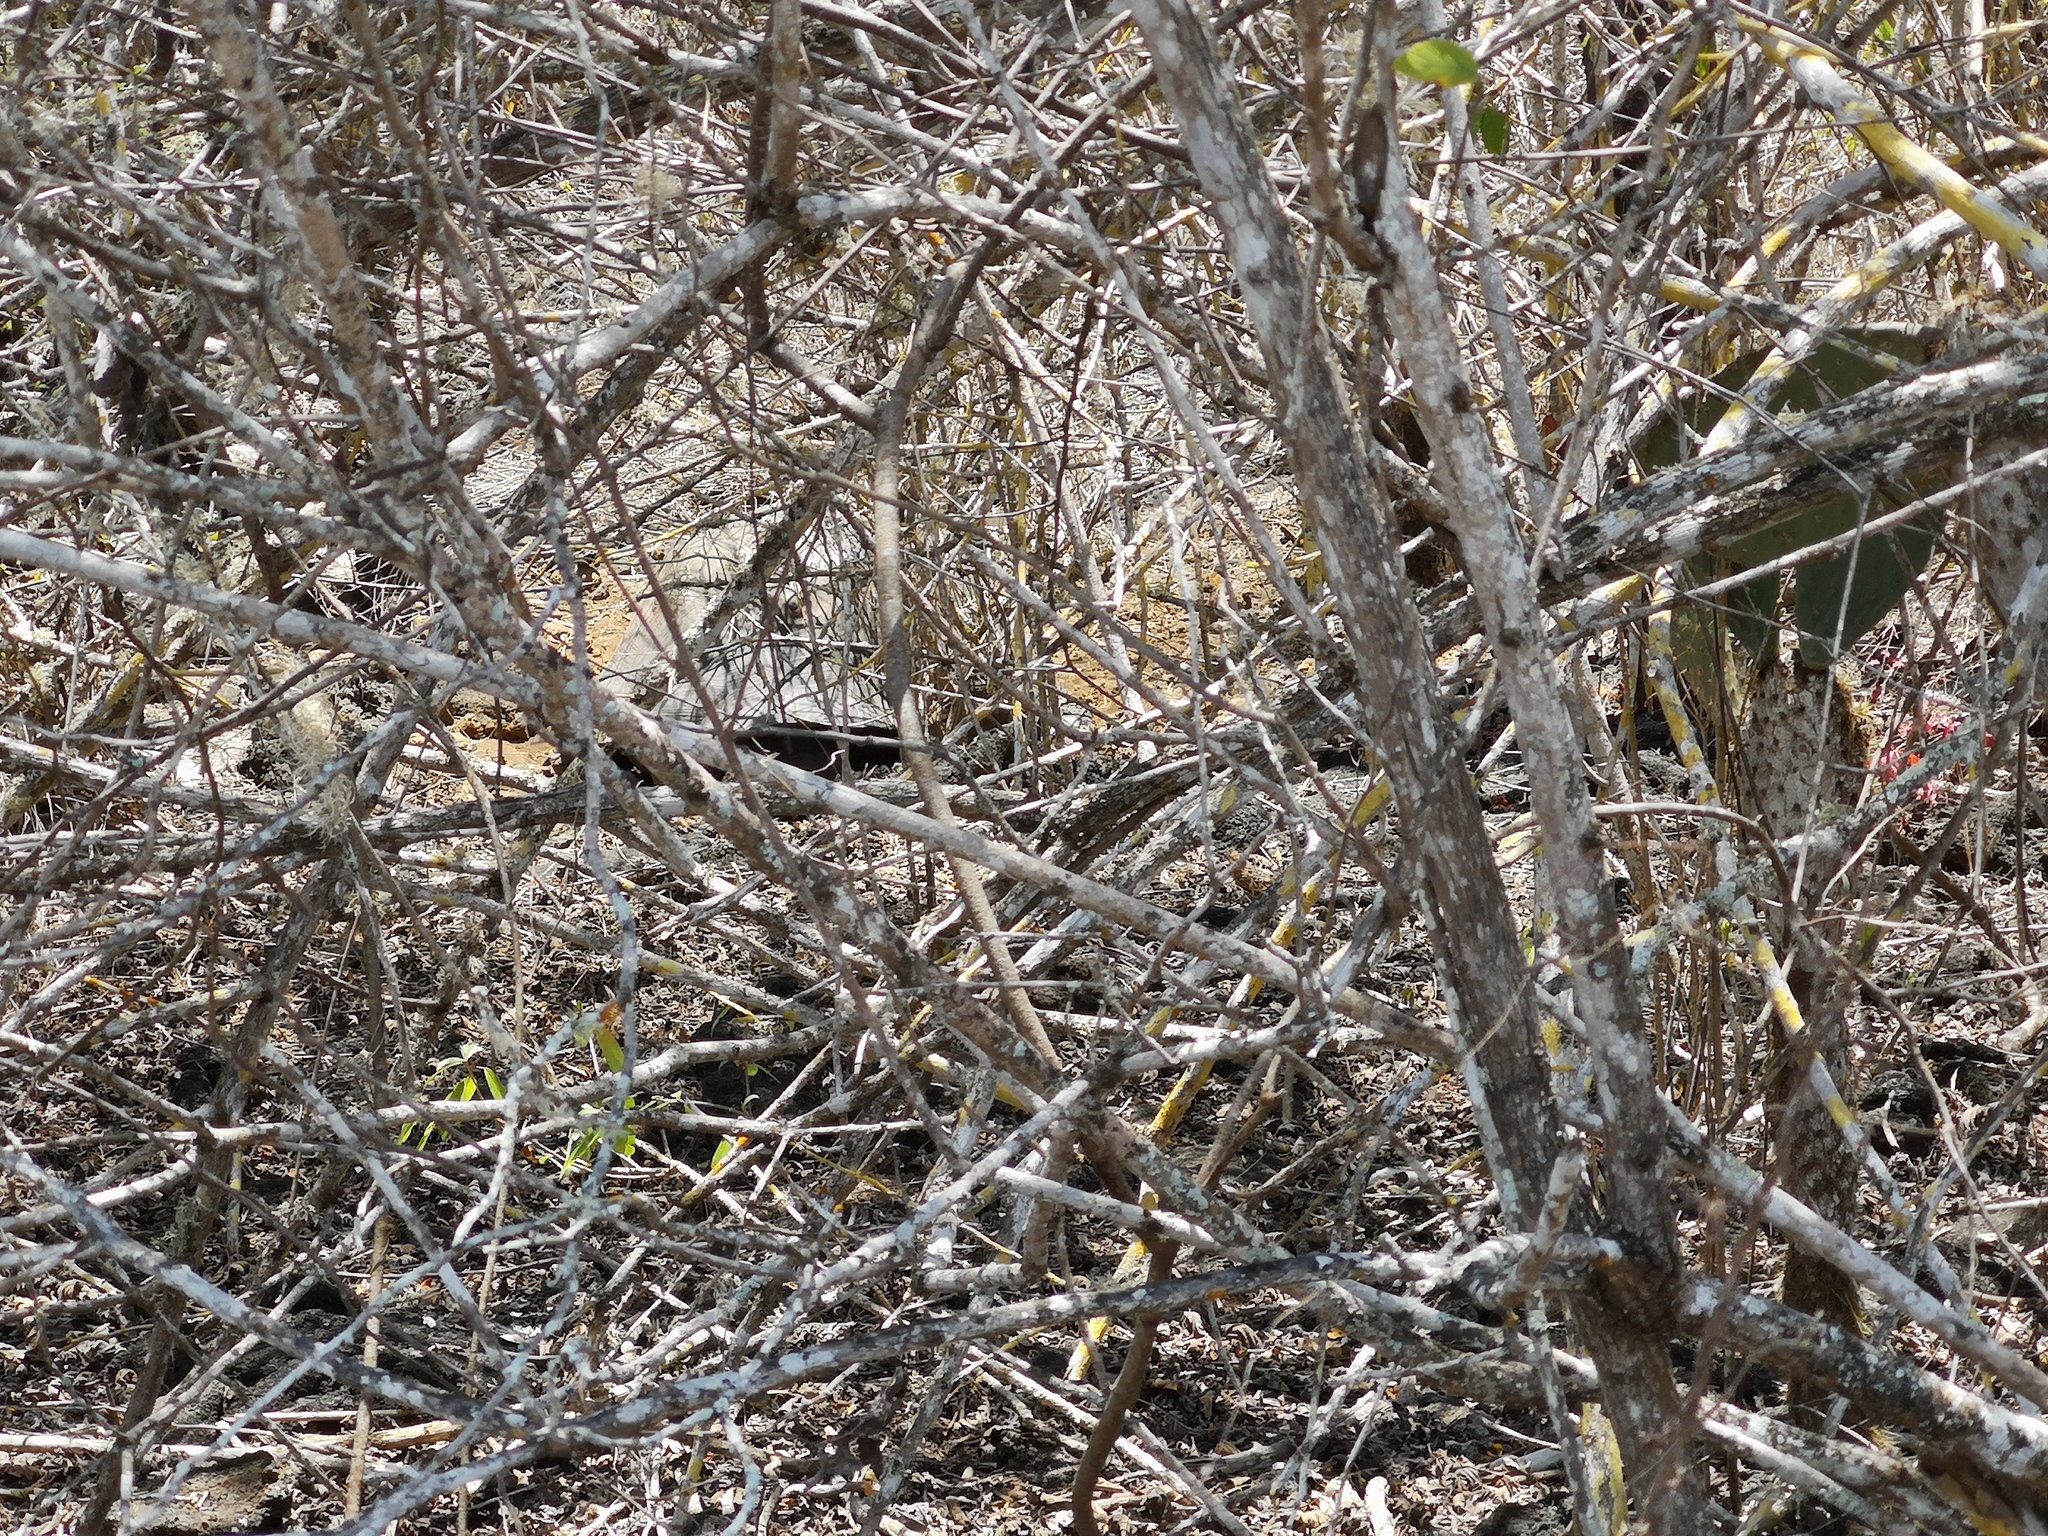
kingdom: Animalia
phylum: Chordata
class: Testudines
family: Testudinidae
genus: Chelonoidis
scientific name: Chelonoidis guntheri
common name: Sierra negra giant tortoise
